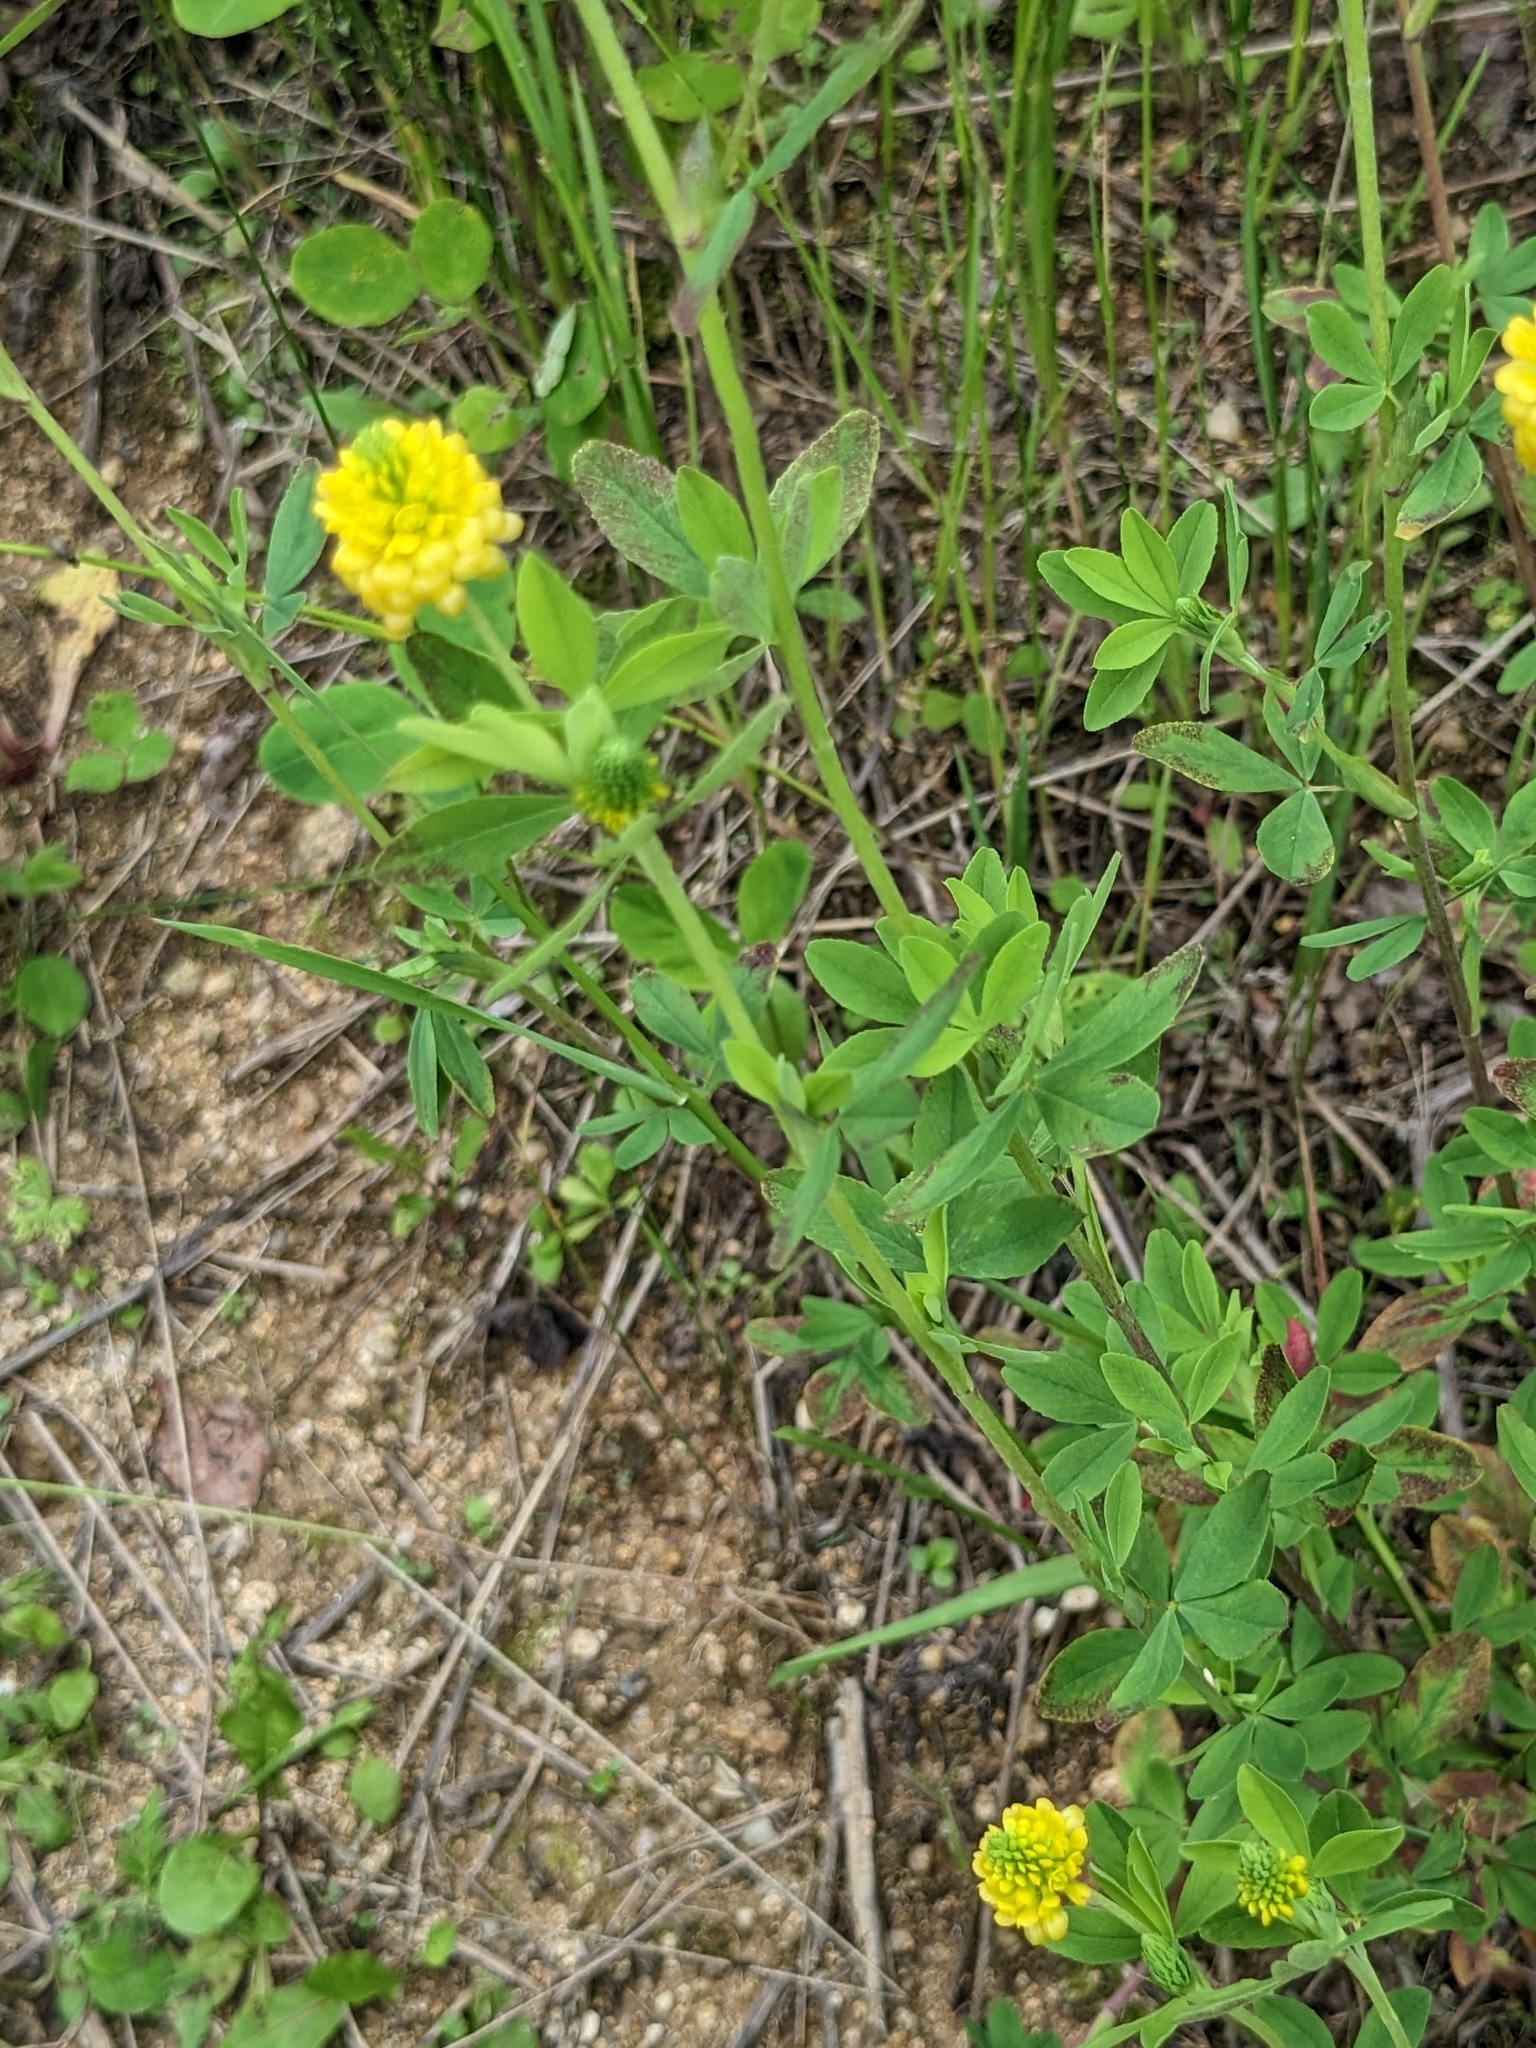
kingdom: Plantae
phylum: Tracheophyta
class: Magnoliopsida
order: Fabales
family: Fabaceae
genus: Trifolium
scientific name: Trifolium campestre
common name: Field clover
